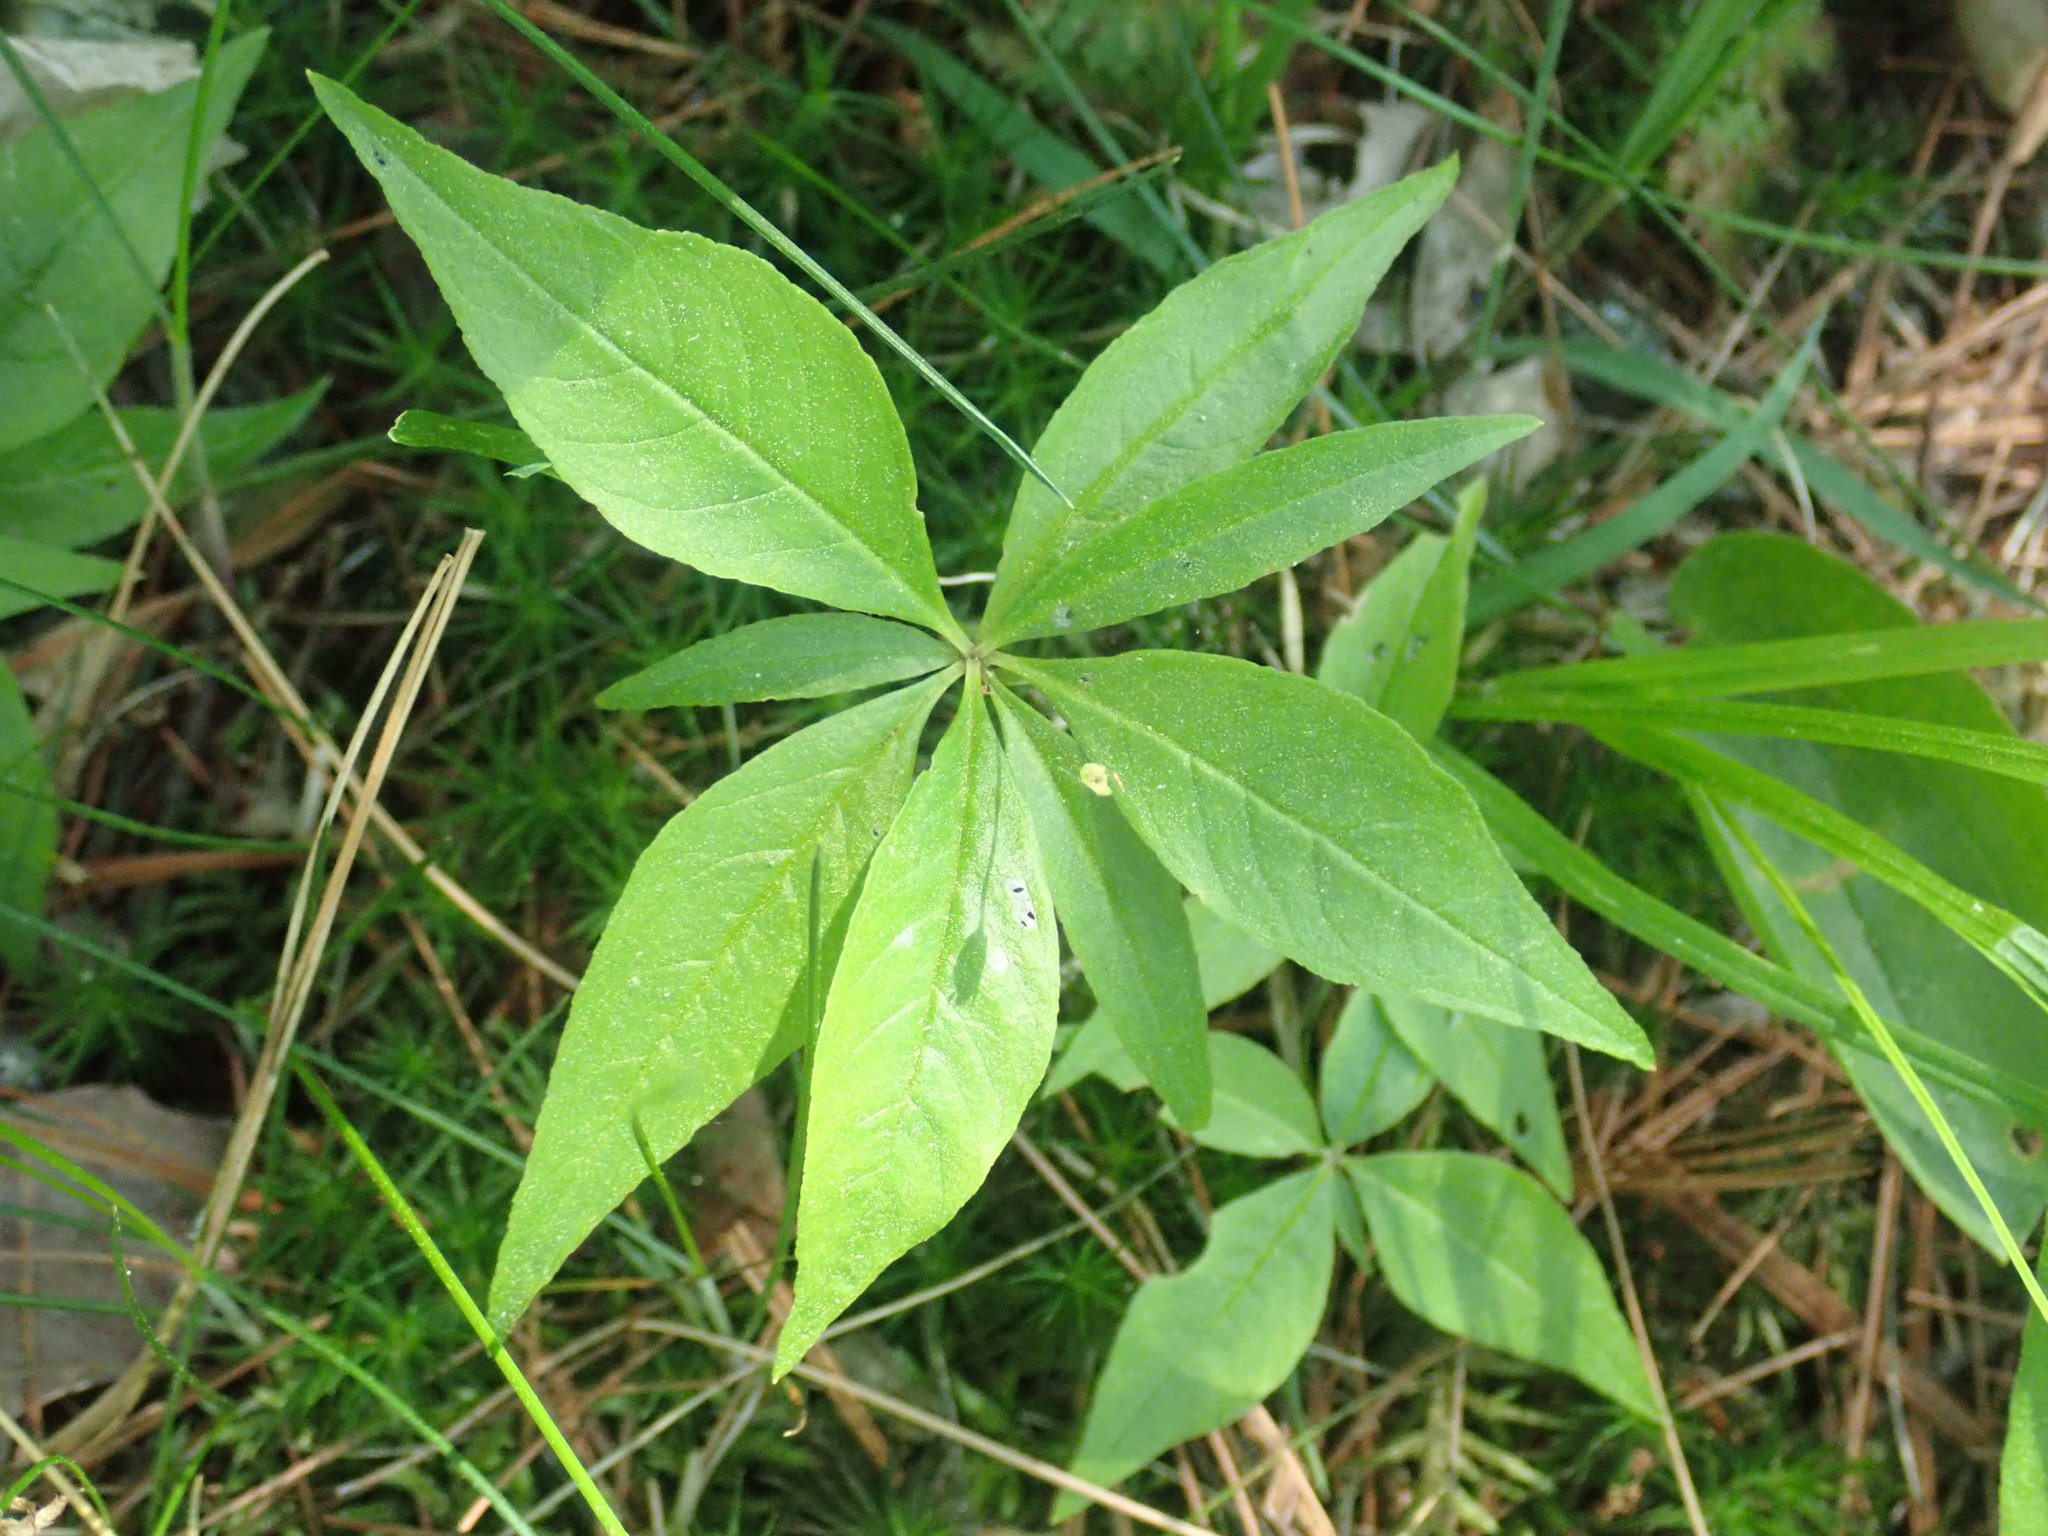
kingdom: Plantae
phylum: Tracheophyta
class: Magnoliopsida
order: Ericales
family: Primulaceae
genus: Lysimachia
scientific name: Lysimachia borealis
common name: American starflower
